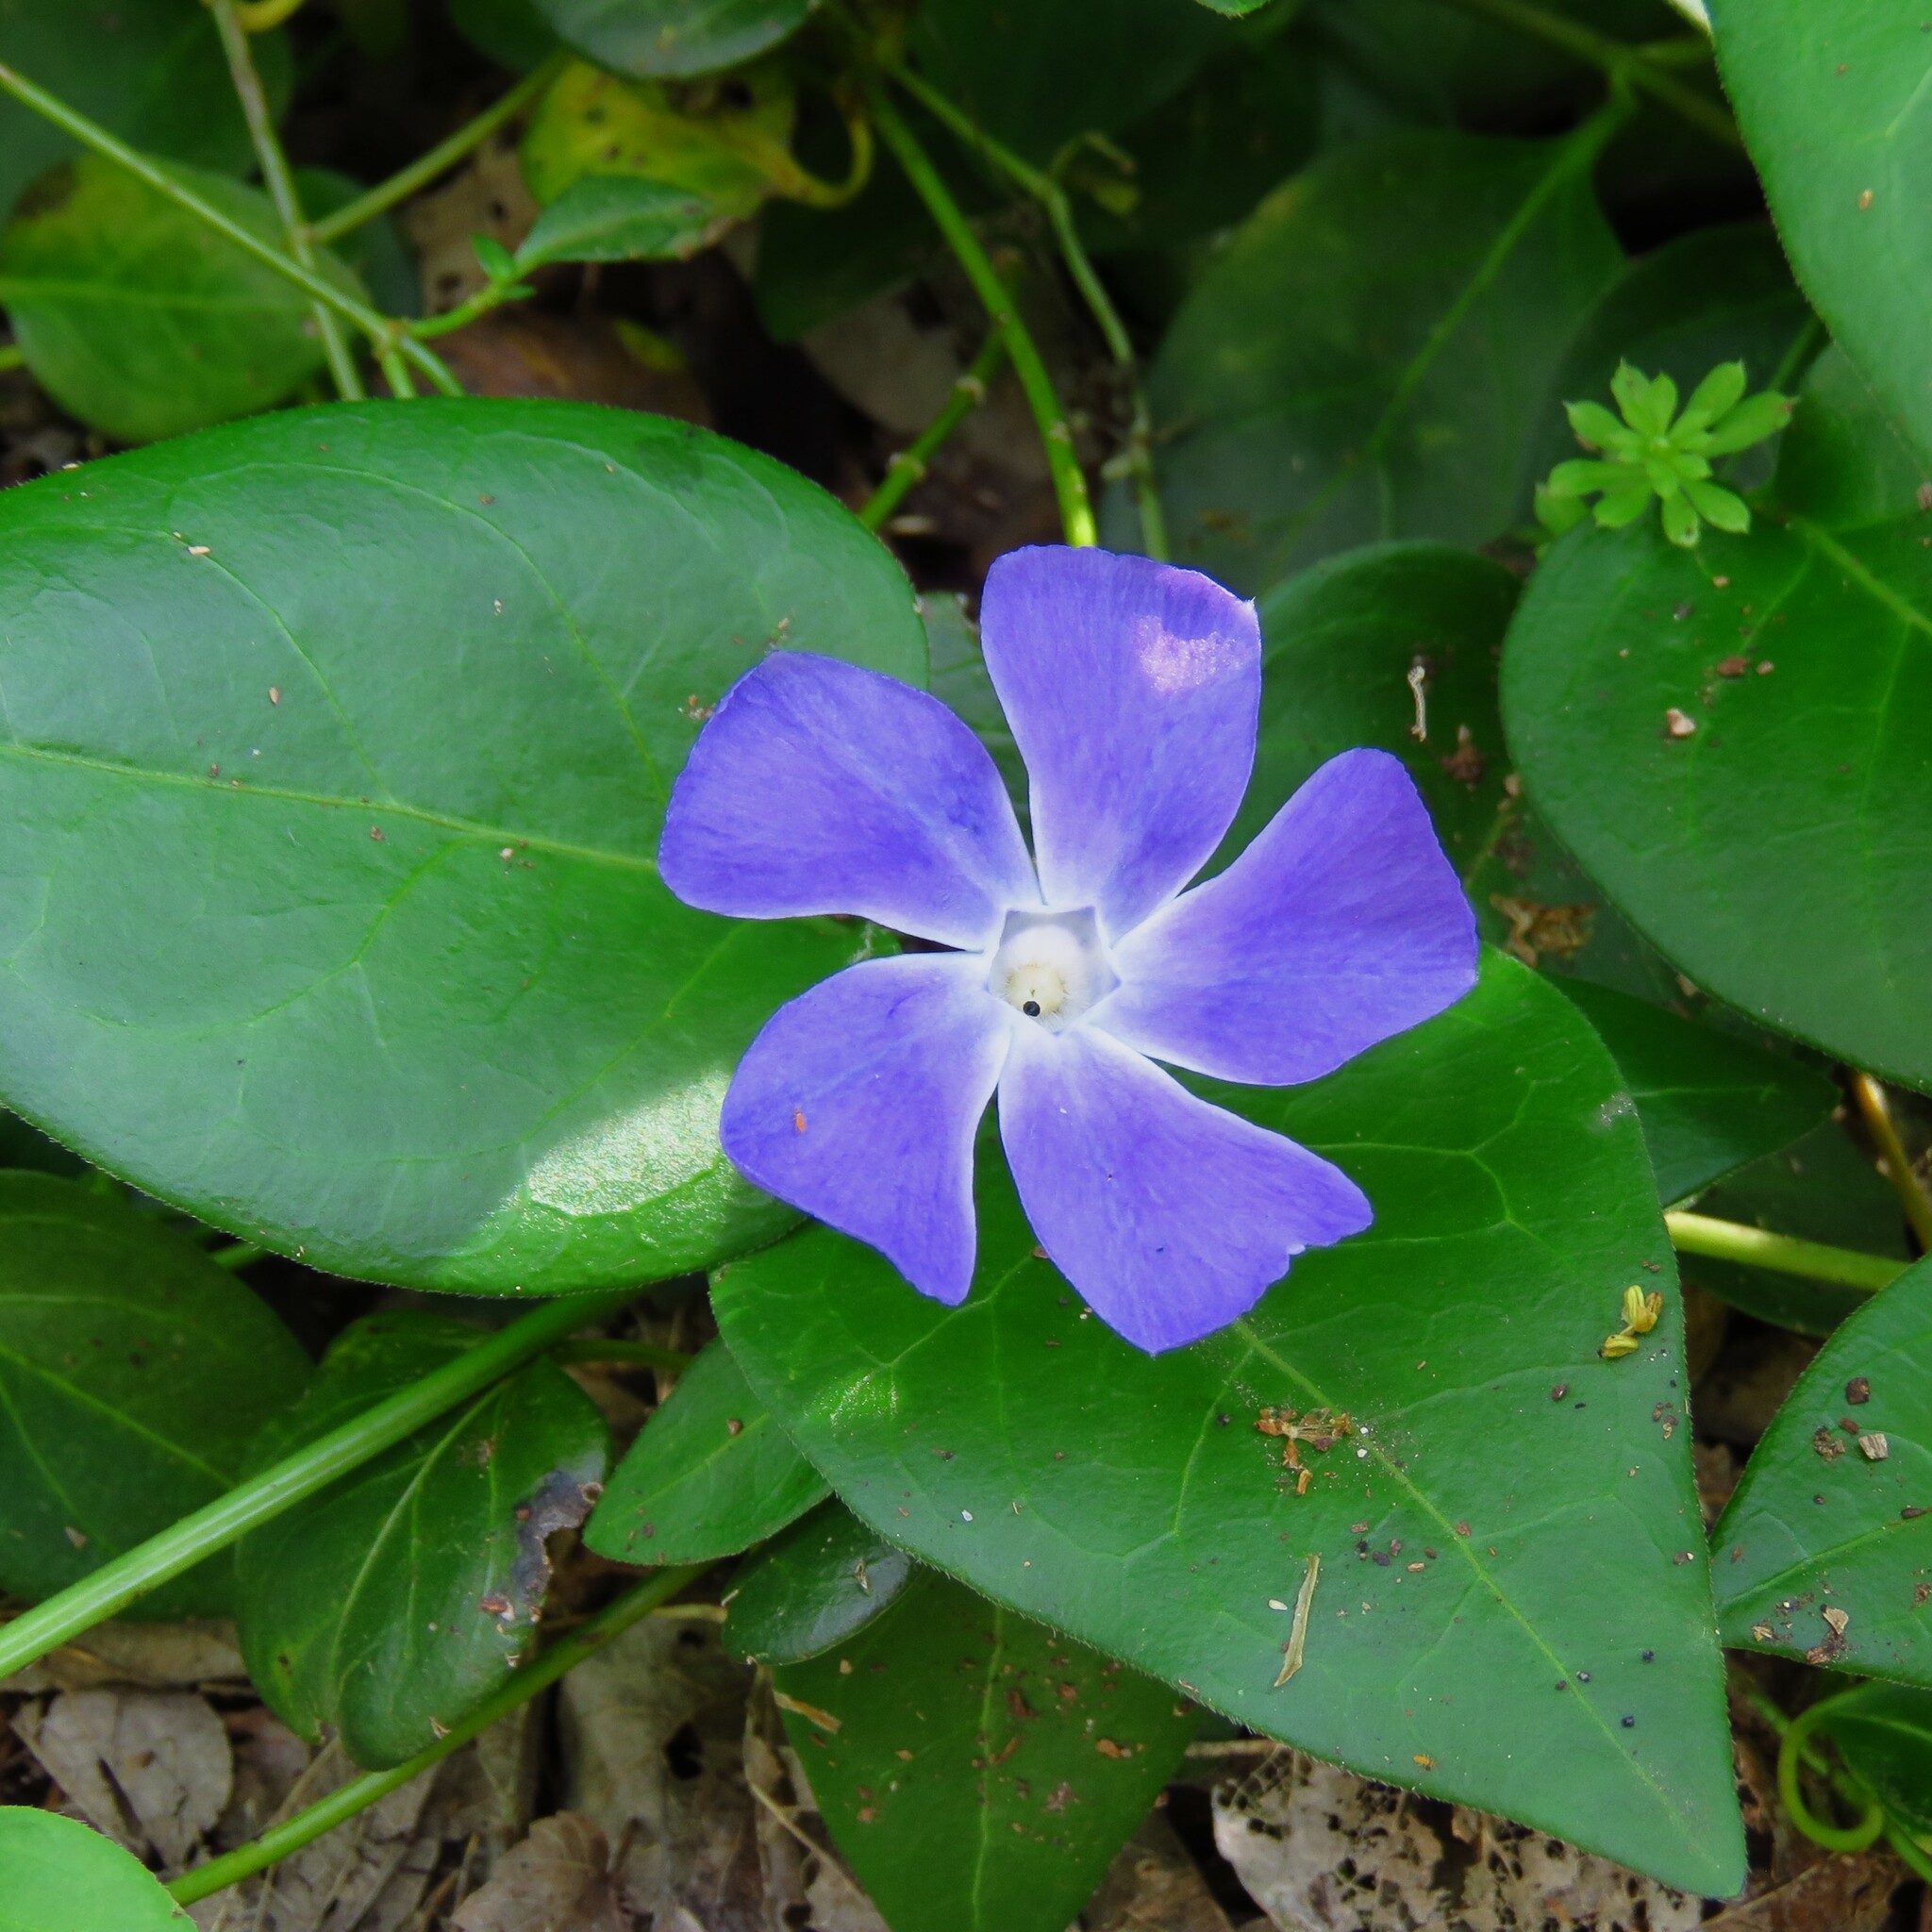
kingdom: Plantae
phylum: Tracheophyta
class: Magnoliopsida
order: Gentianales
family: Apocynaceae
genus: Vinca
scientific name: Vinca major
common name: Greater periwinkle
